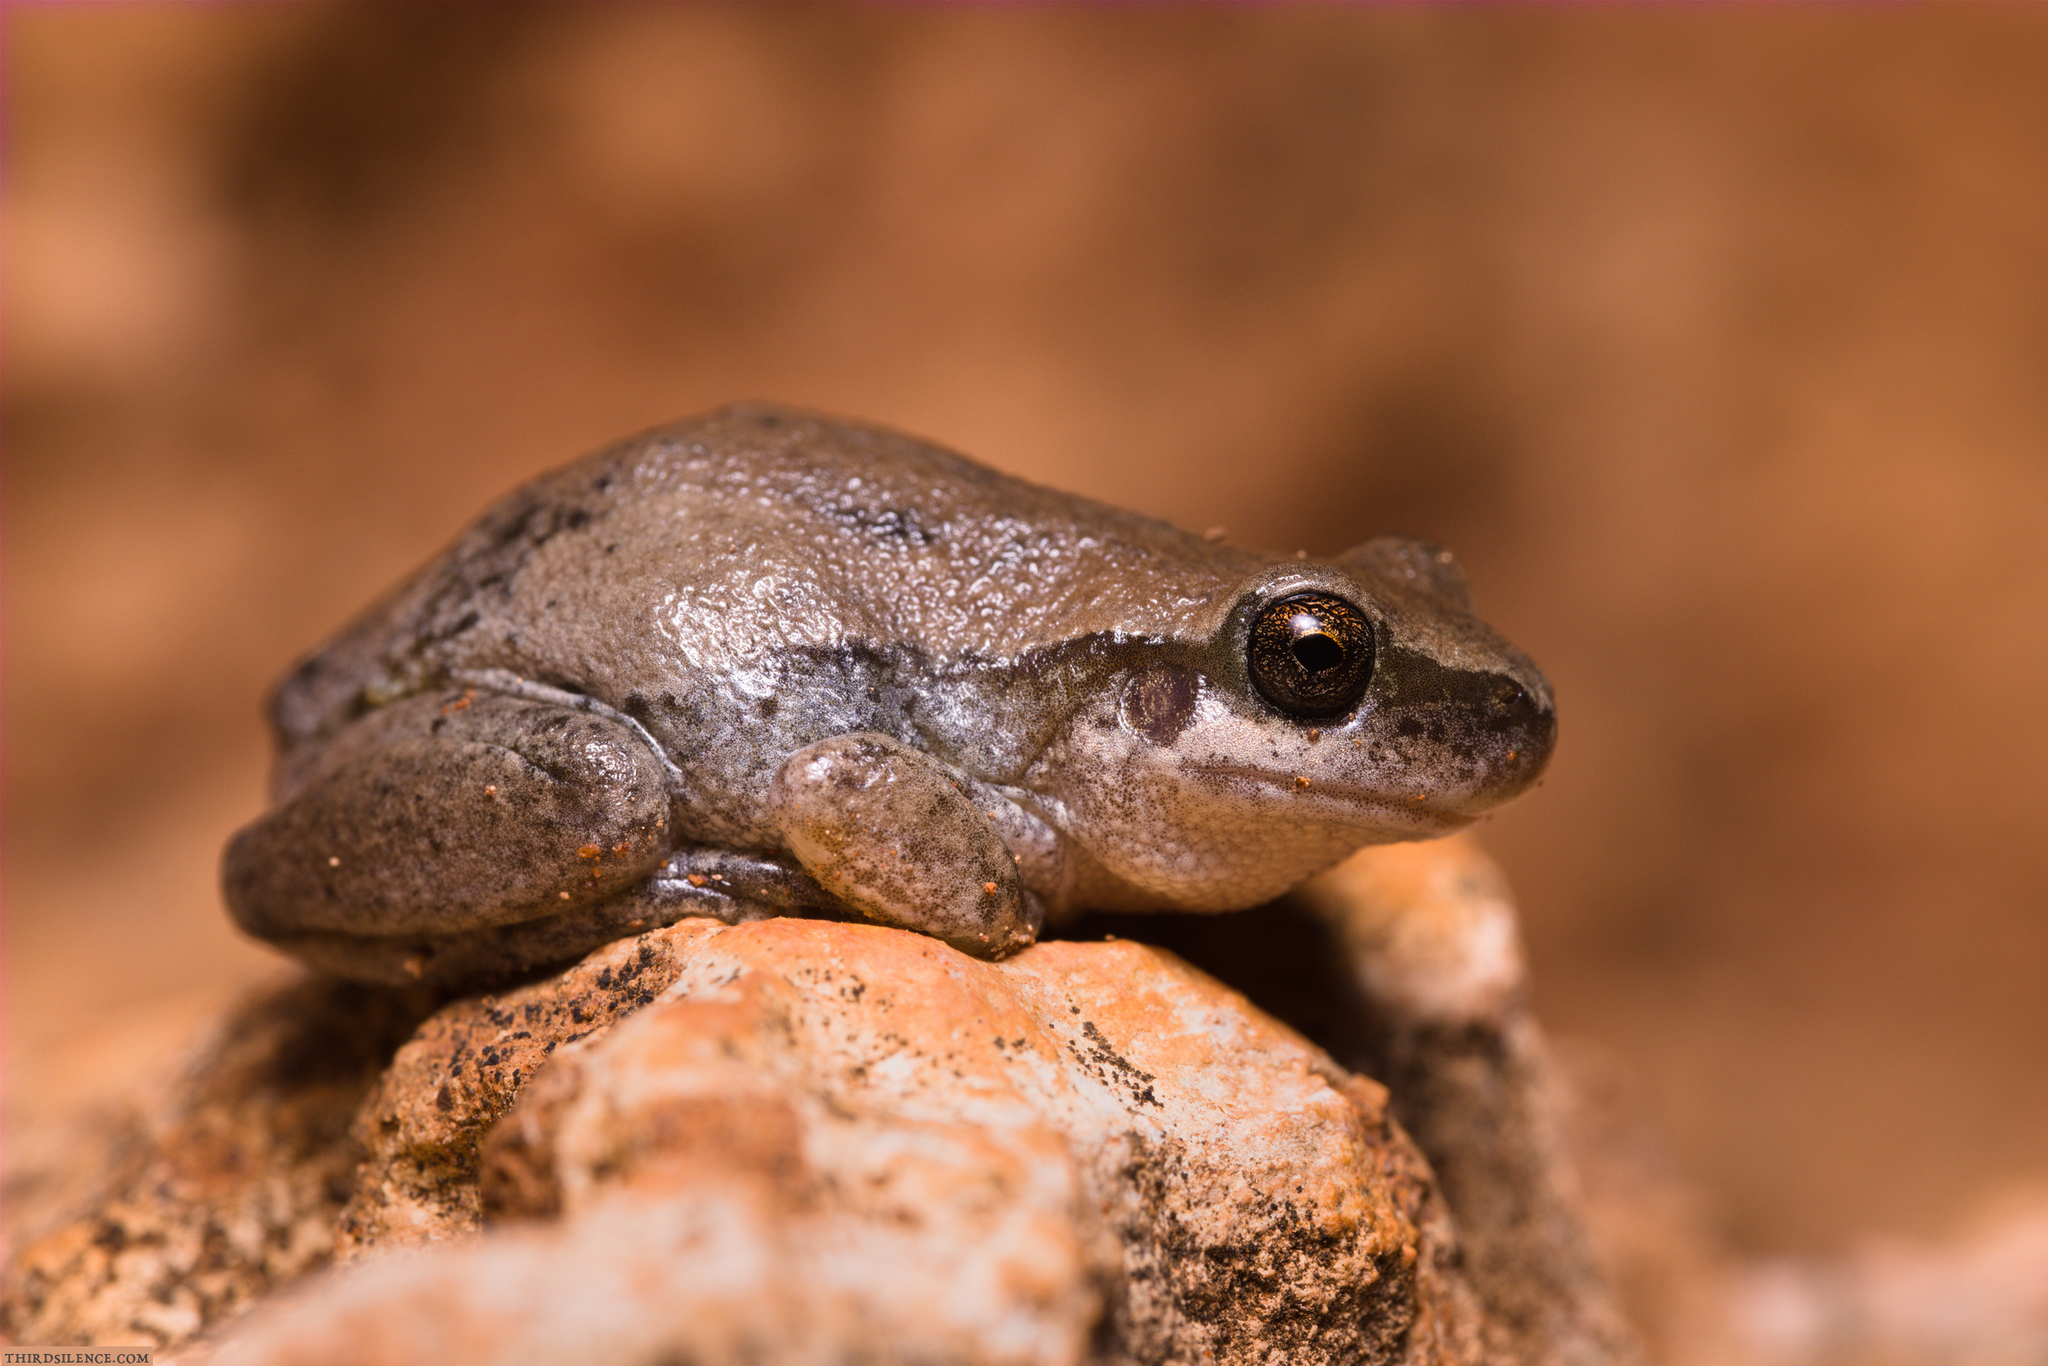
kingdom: Animalia
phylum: Chordata
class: Amphibia
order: Anura
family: Pelodryadidae
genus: Litoria
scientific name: Litoria rubella
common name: Desert tree frog
